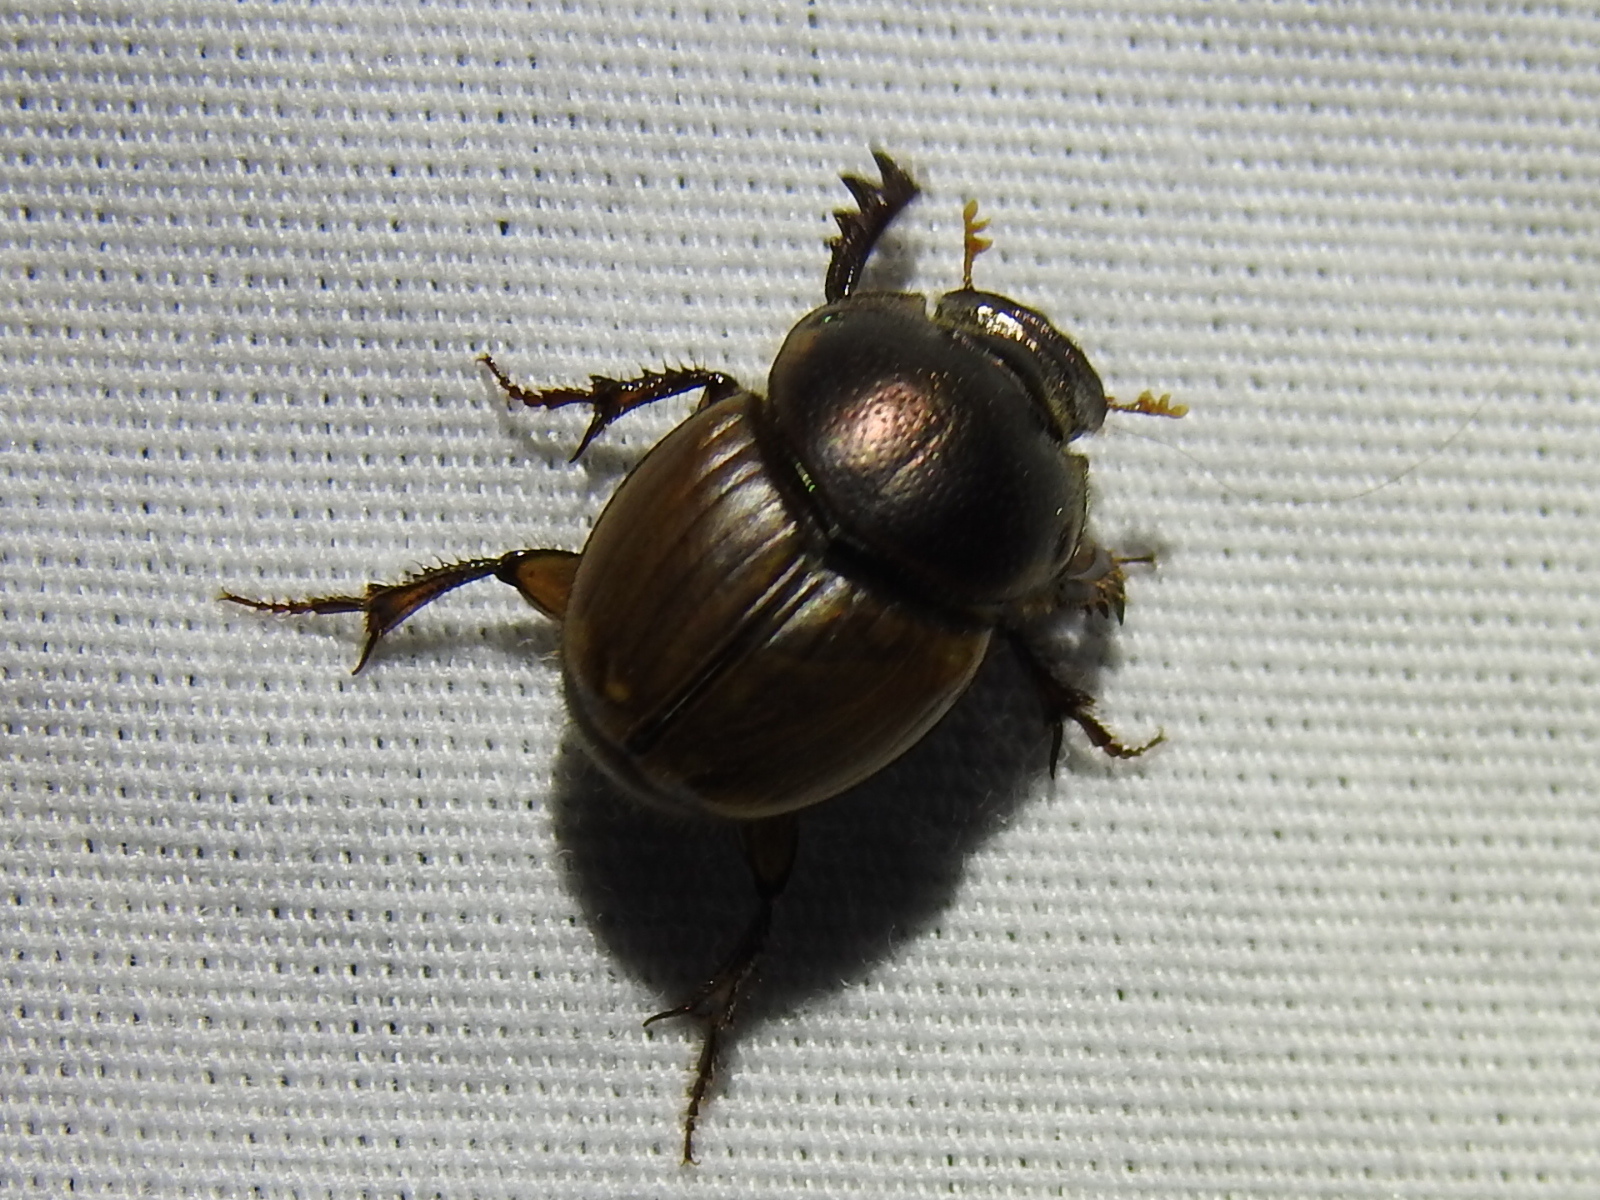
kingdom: Animalia
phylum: Arthropoda
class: Insecta
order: Coleoptera
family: Scarabaeidae
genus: Digitonthophagus
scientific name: Digitonthophagus gazella
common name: Brown dung beetle
